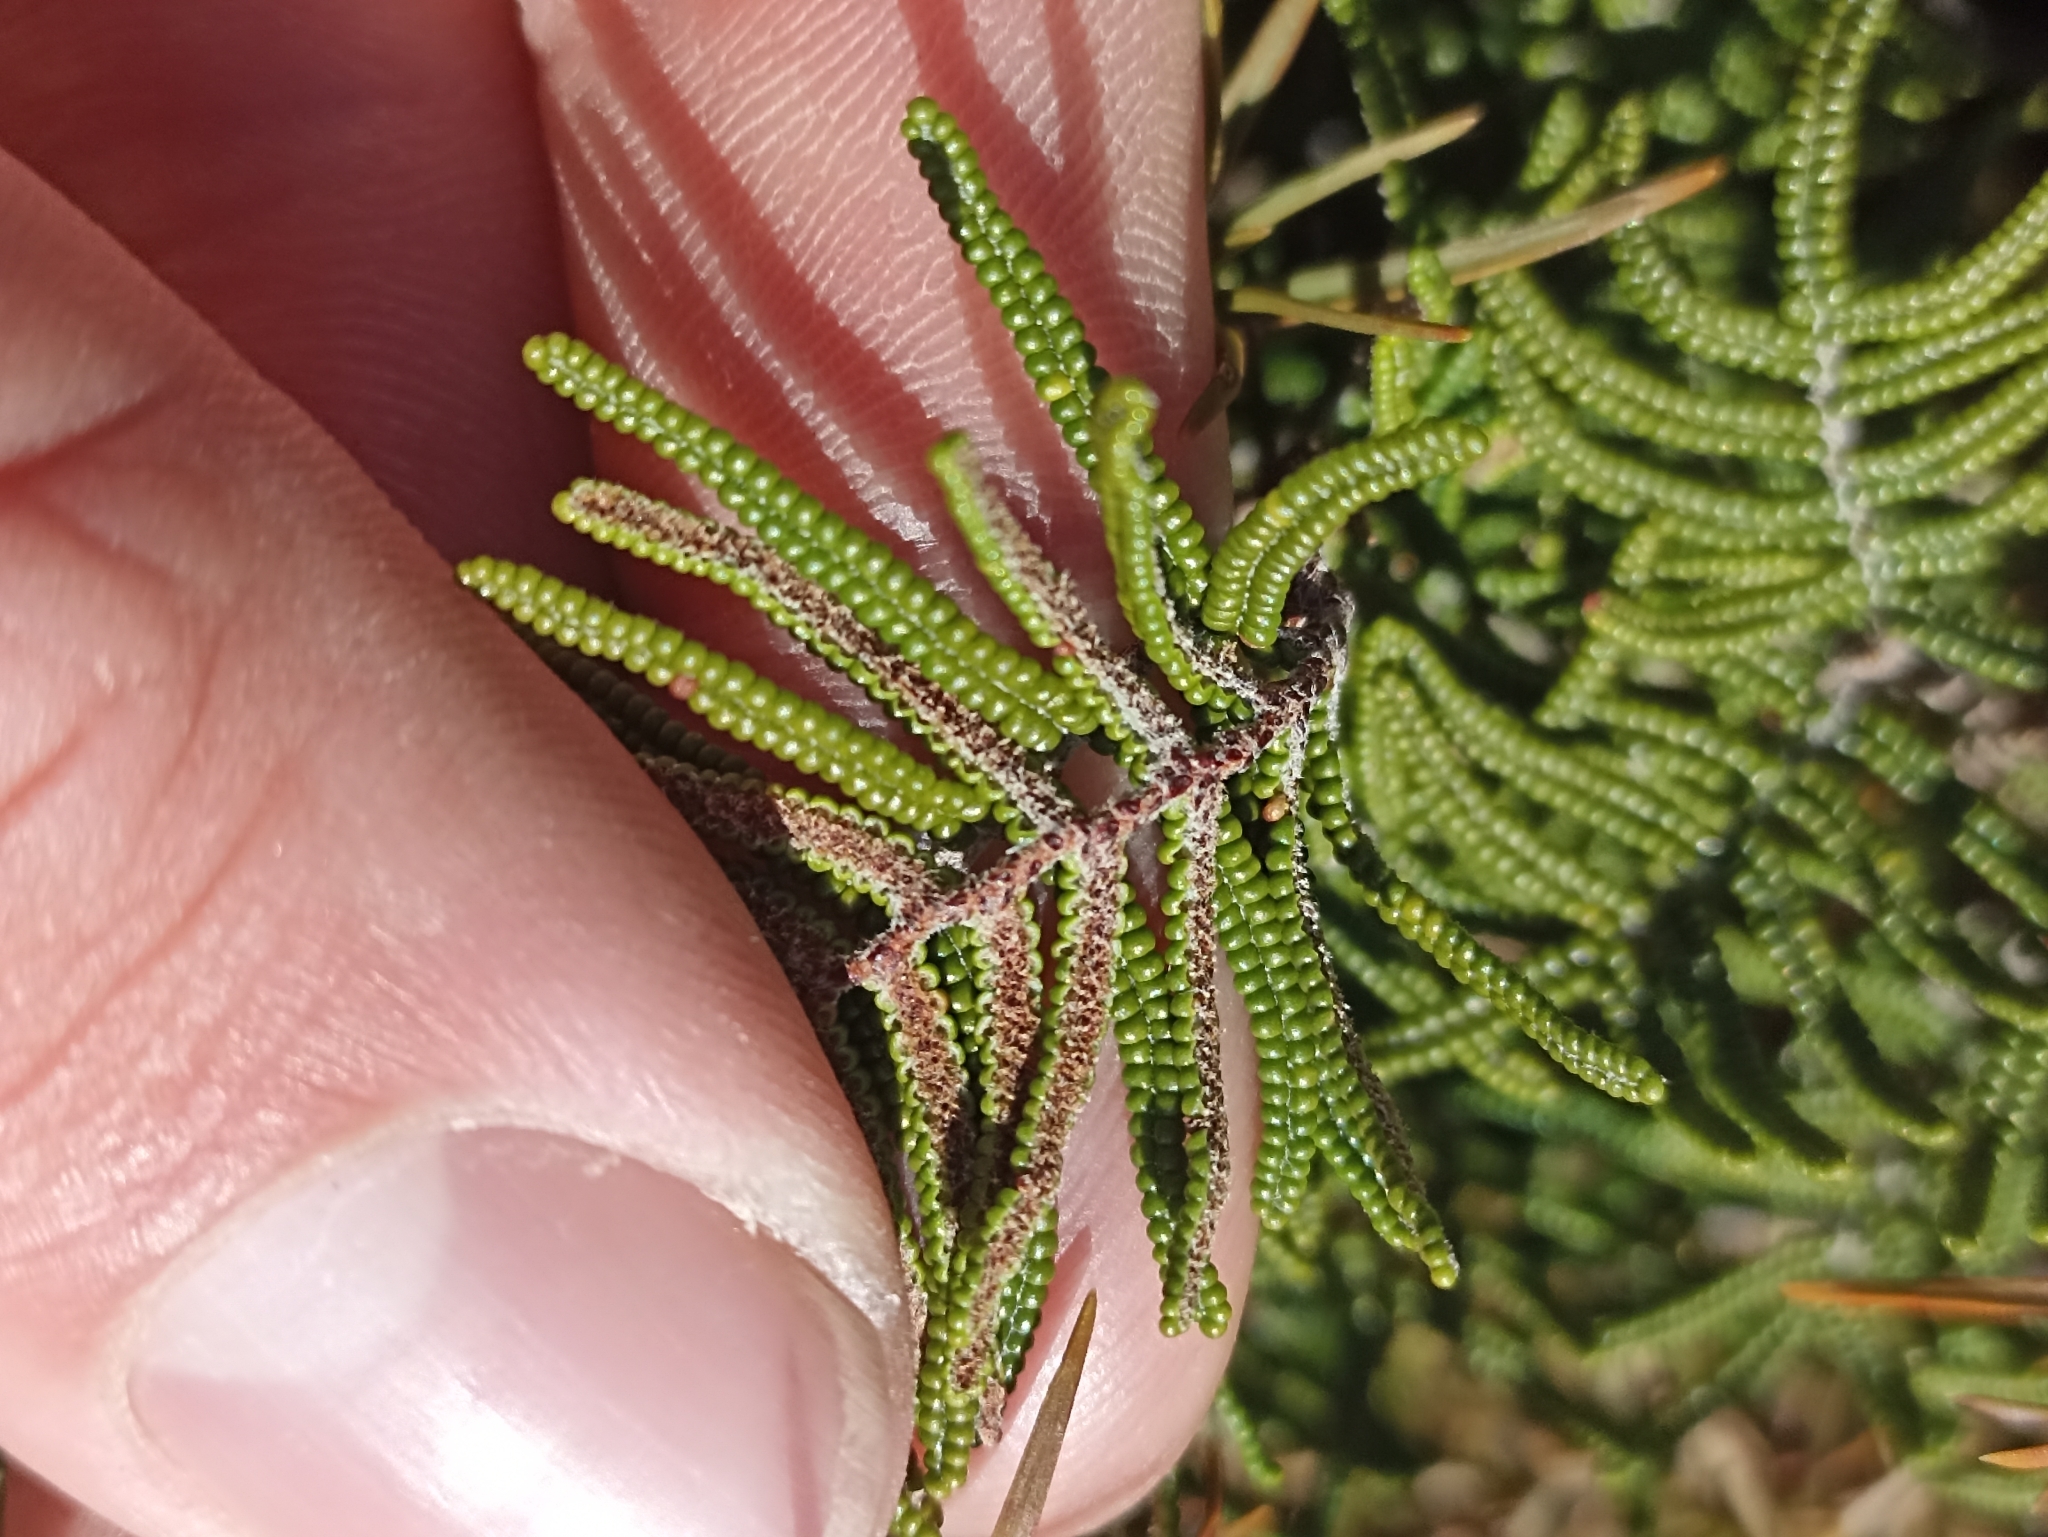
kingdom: Plantae
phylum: Tracheophyta
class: Polypodiopsida
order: Gleicheniales
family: Gleicheniaceae
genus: Gleichenia
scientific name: Gleichenia alpina
